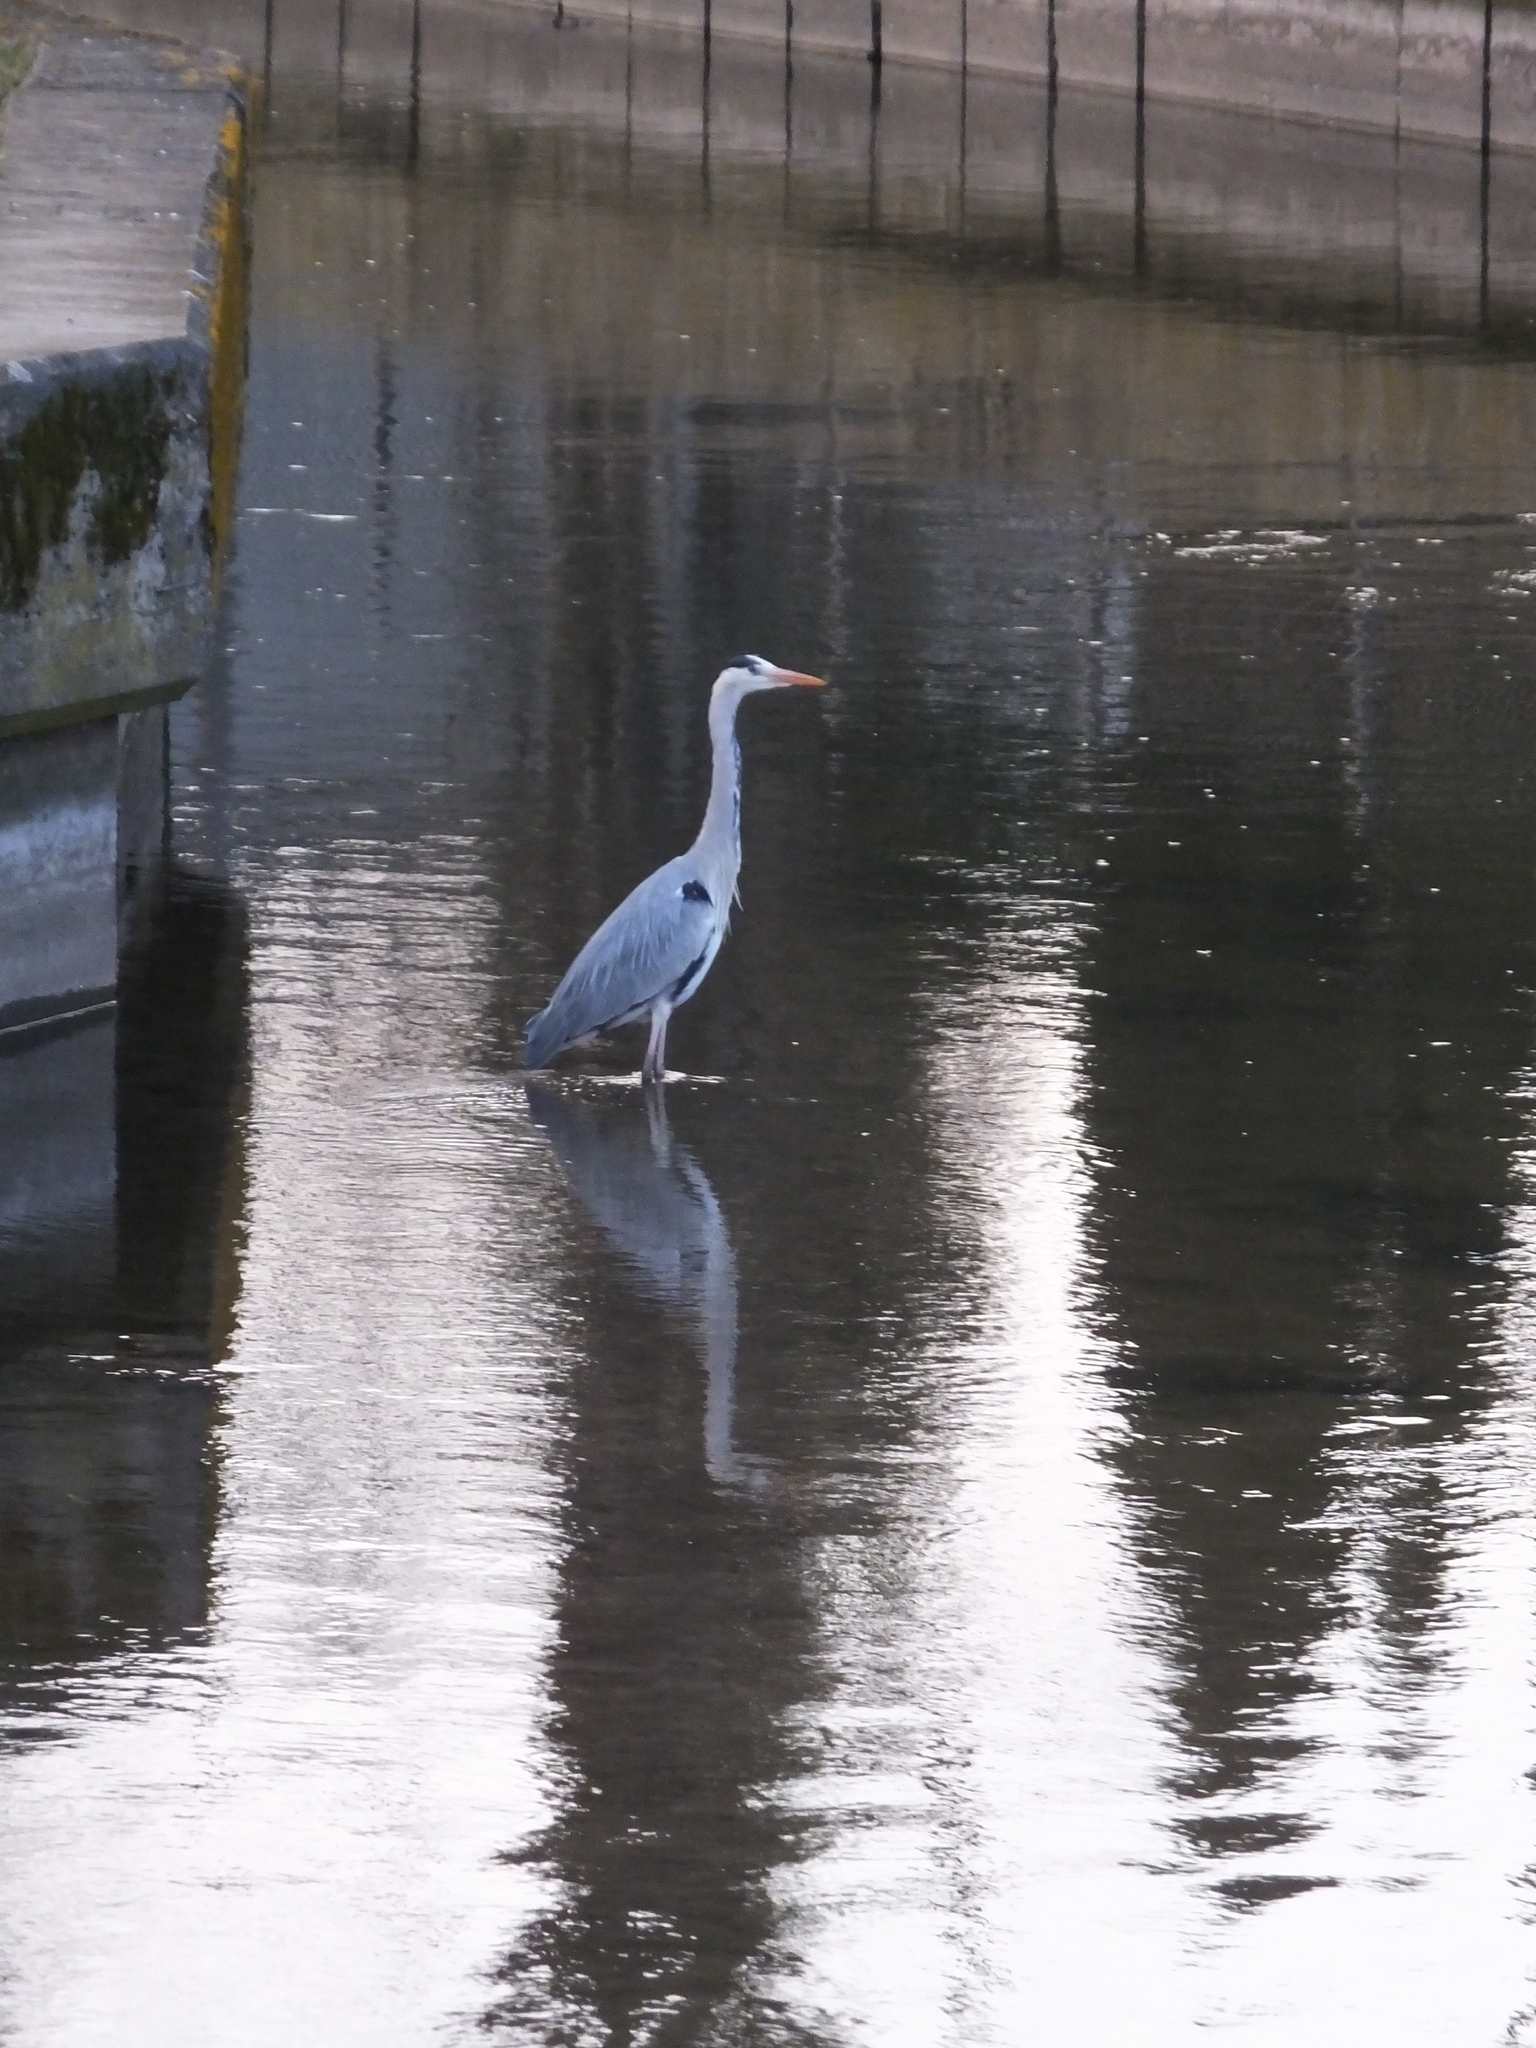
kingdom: Animalia
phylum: Chordata
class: Aves
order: Pelecaniformes
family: Ardeidae
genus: Ardea
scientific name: Ardea cinerea
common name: Grey heron
